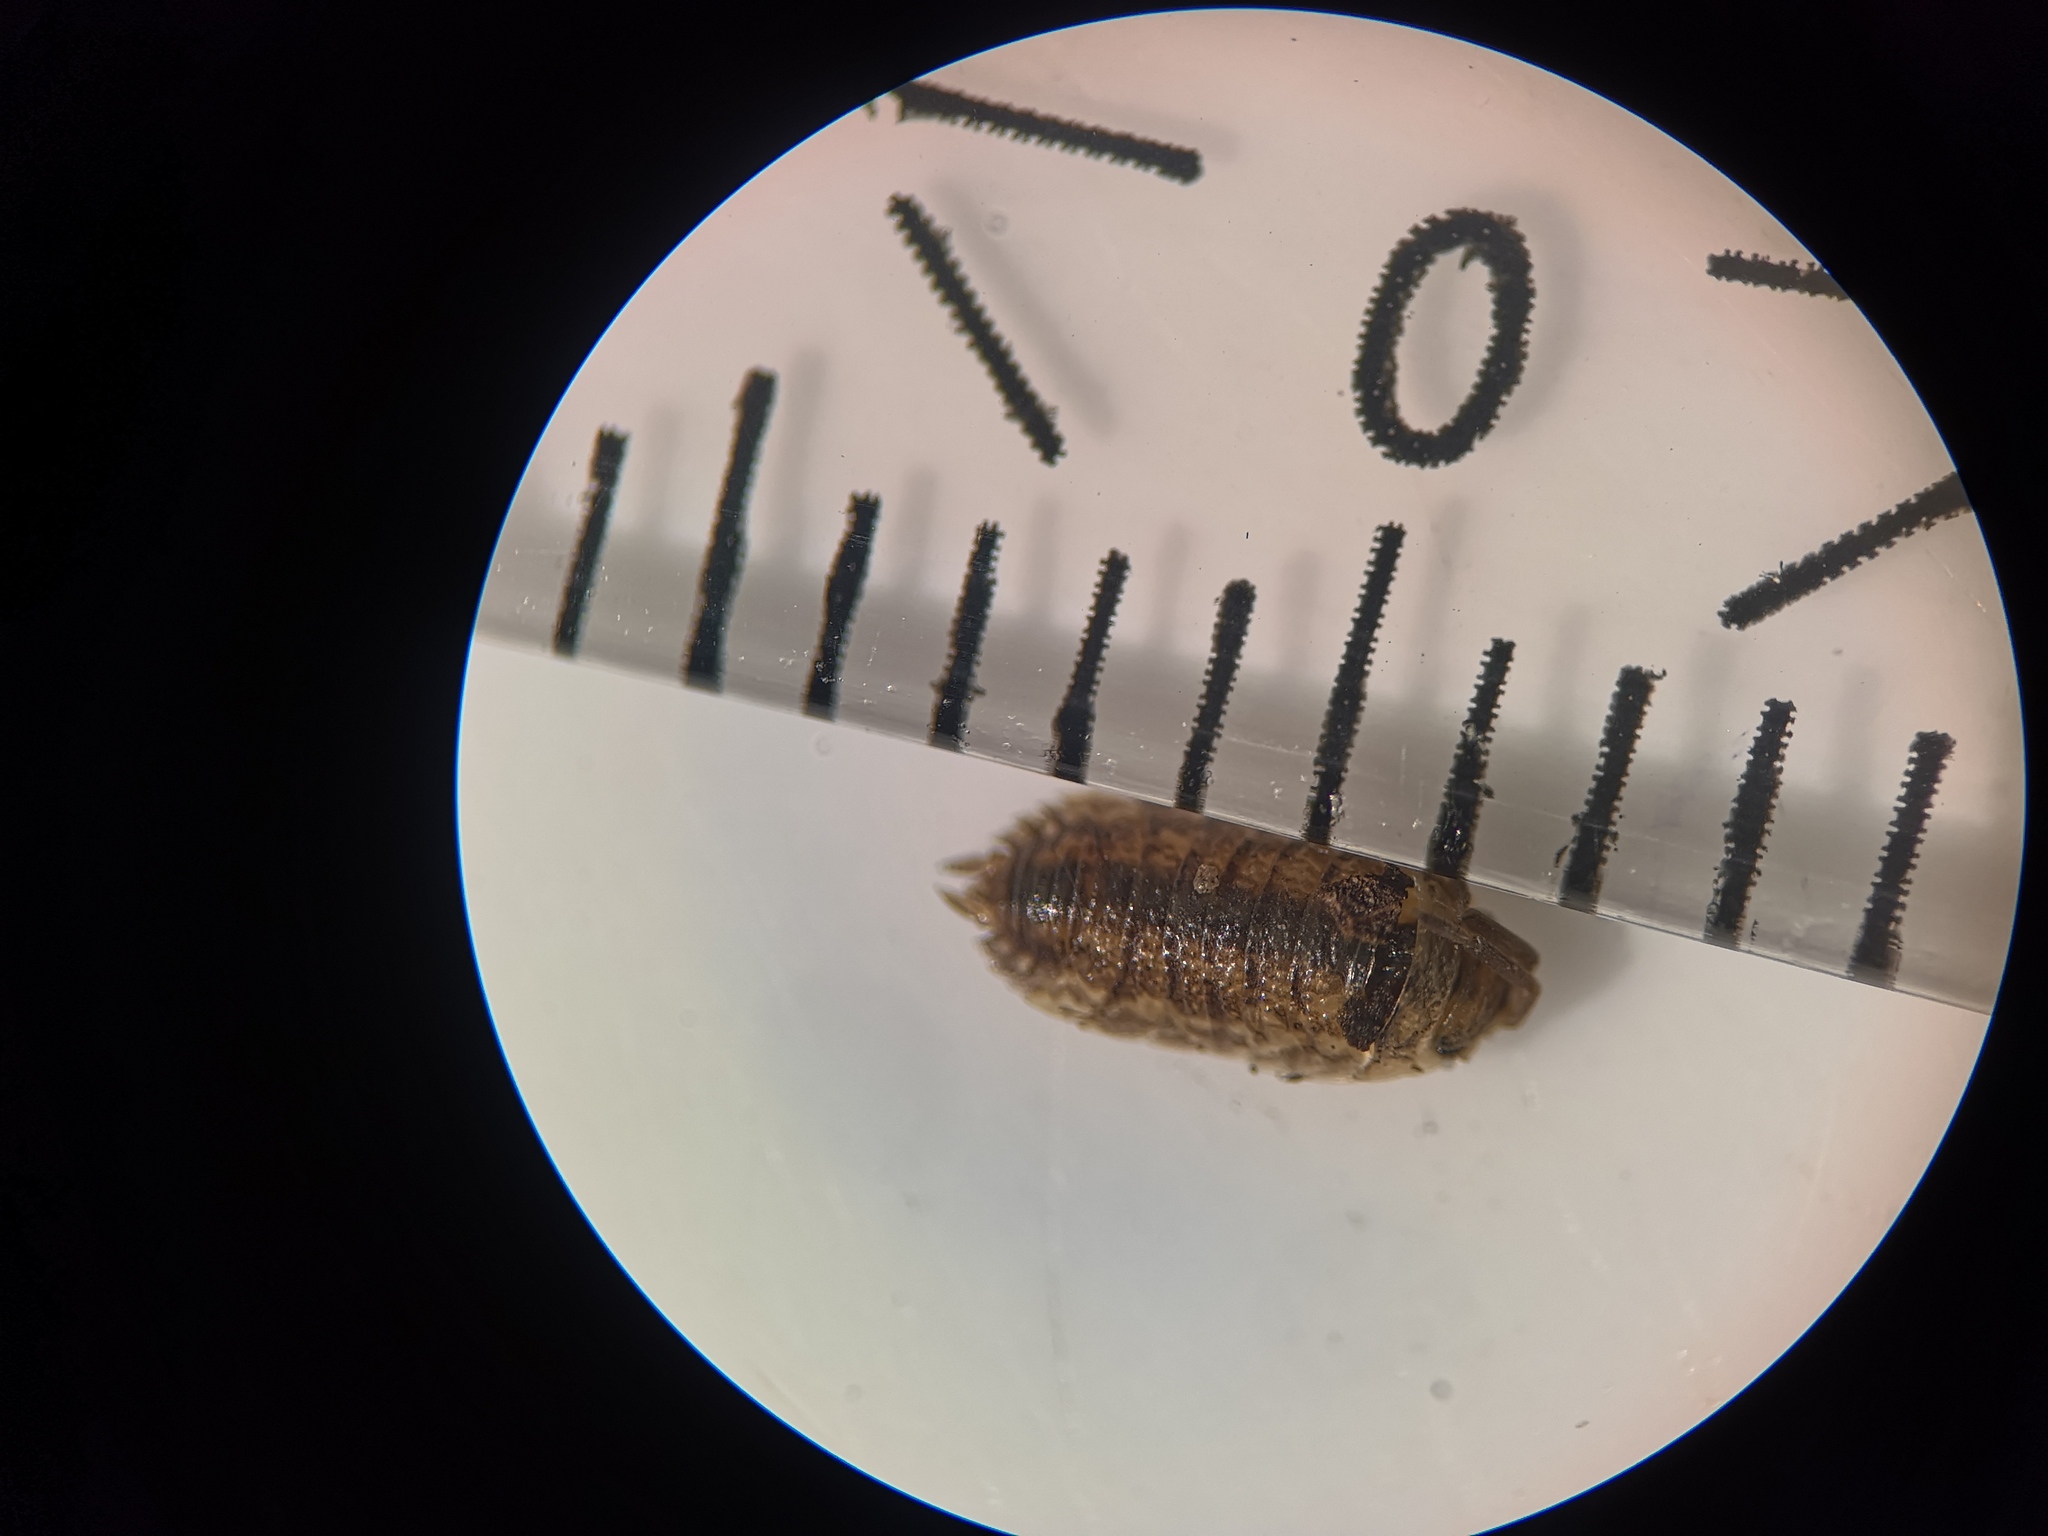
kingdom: Animalia
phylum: Arthropoda
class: Malacostraca
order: Isopoda
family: Porcellionidae
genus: Porcellio
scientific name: Porcellio scaber
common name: Common rough woodlouse
